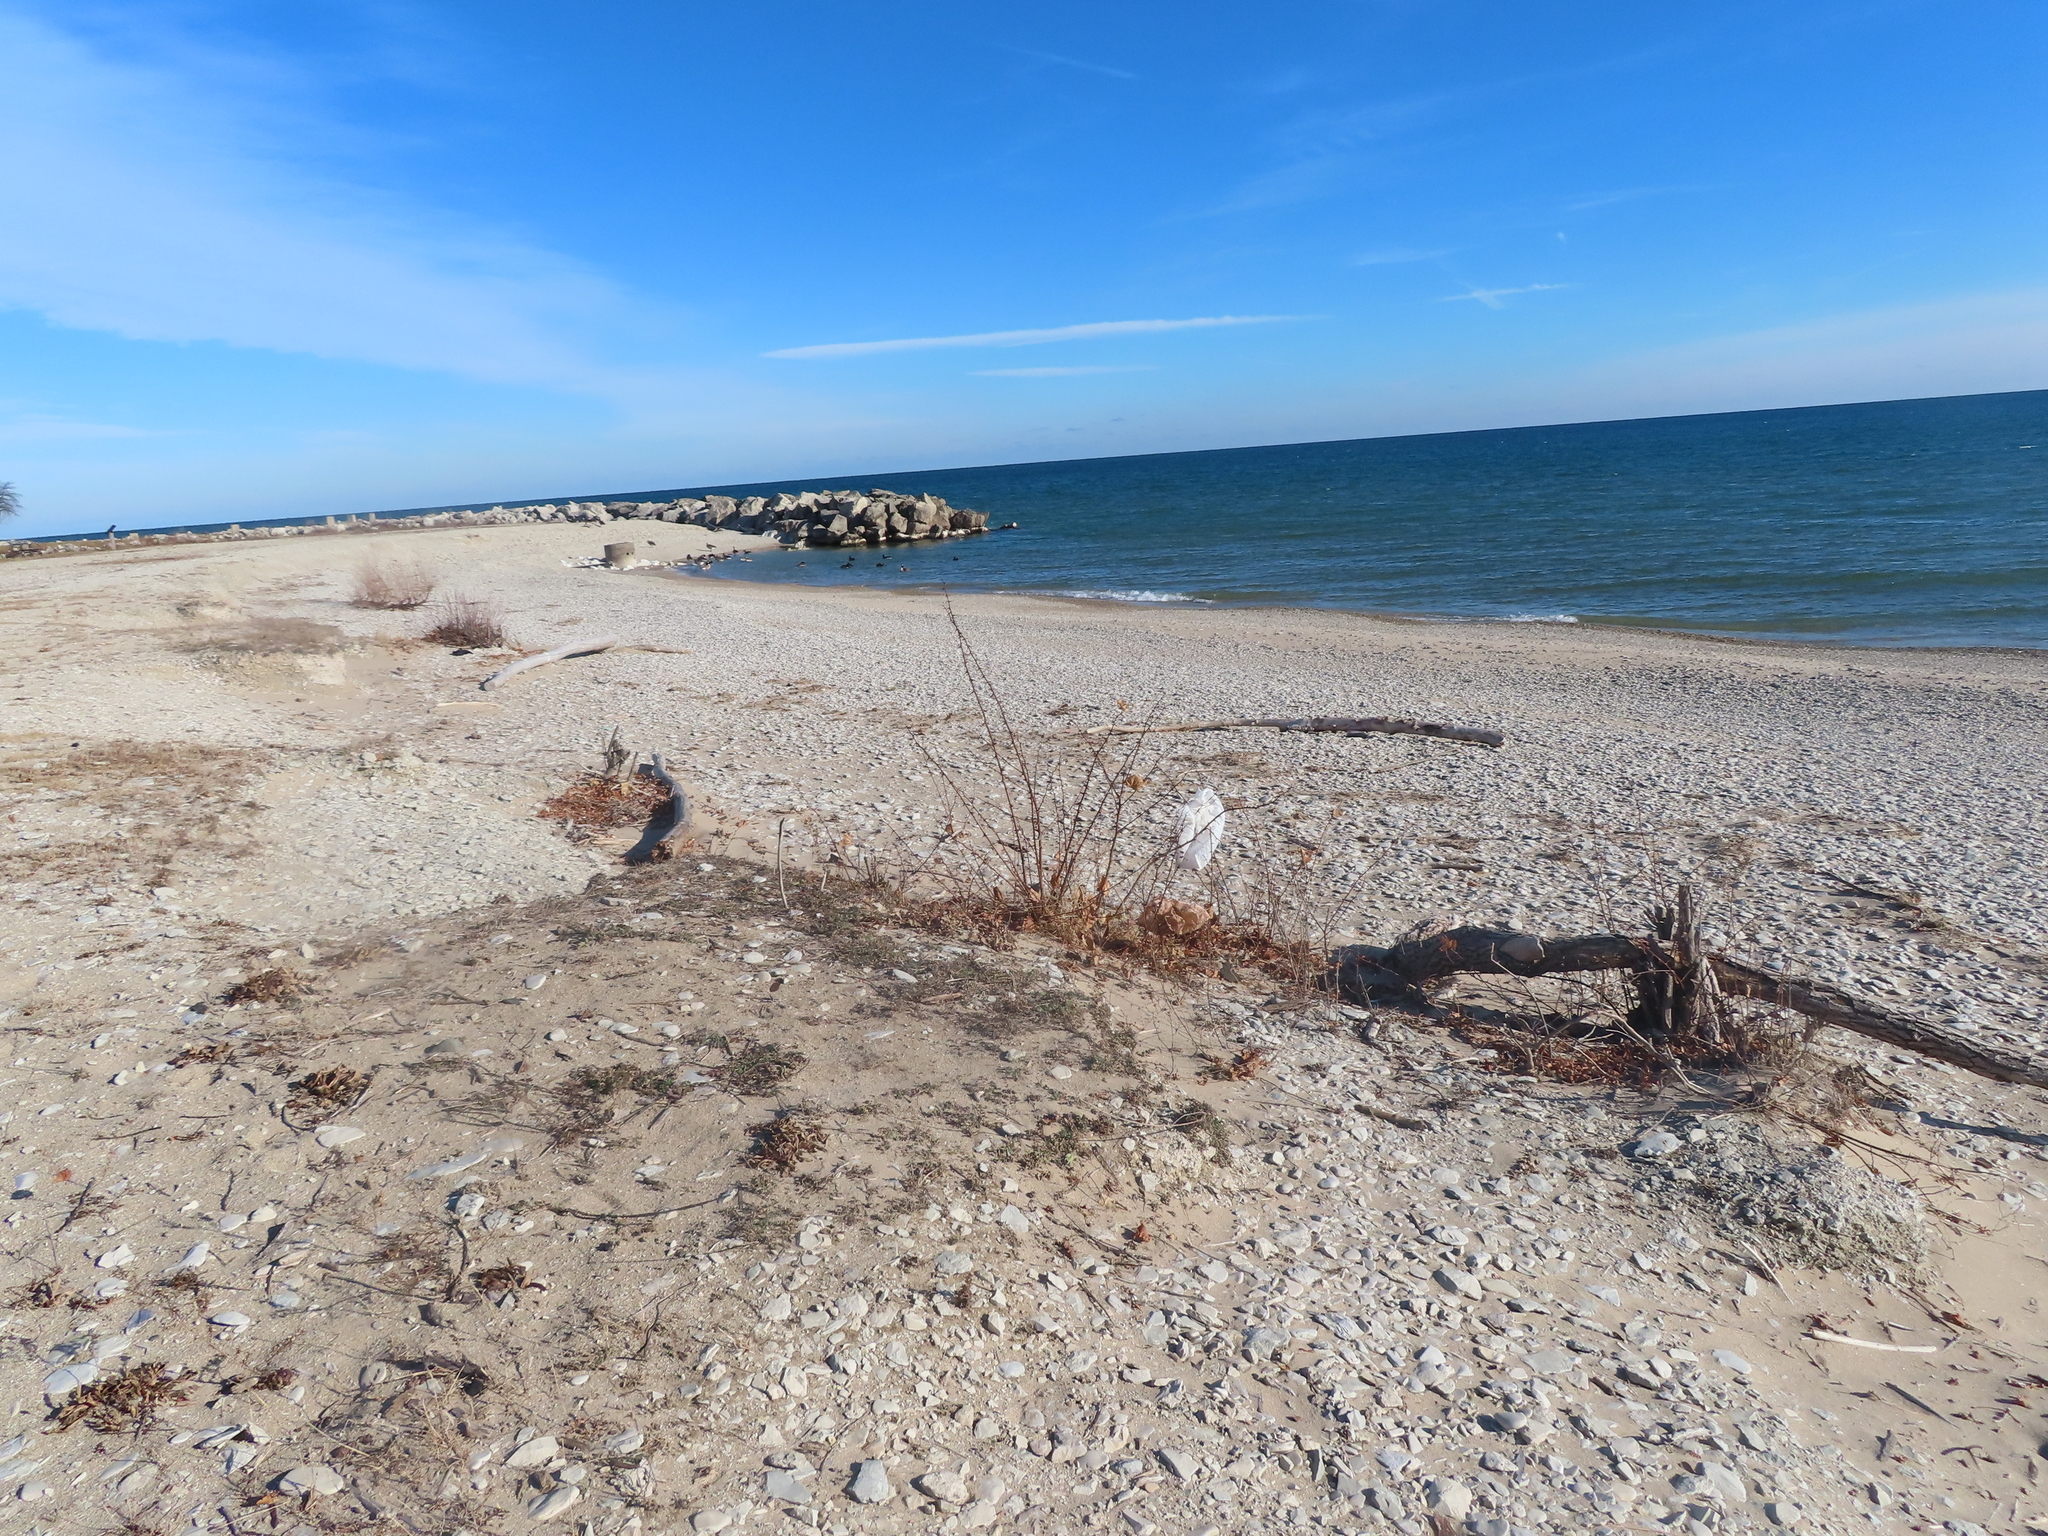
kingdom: Plantae
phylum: Tracheophyta
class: Magnoliopsida
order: Fabales
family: Fabaceae
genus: Robinia
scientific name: Robinia pseudoacacia
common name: Black locust
